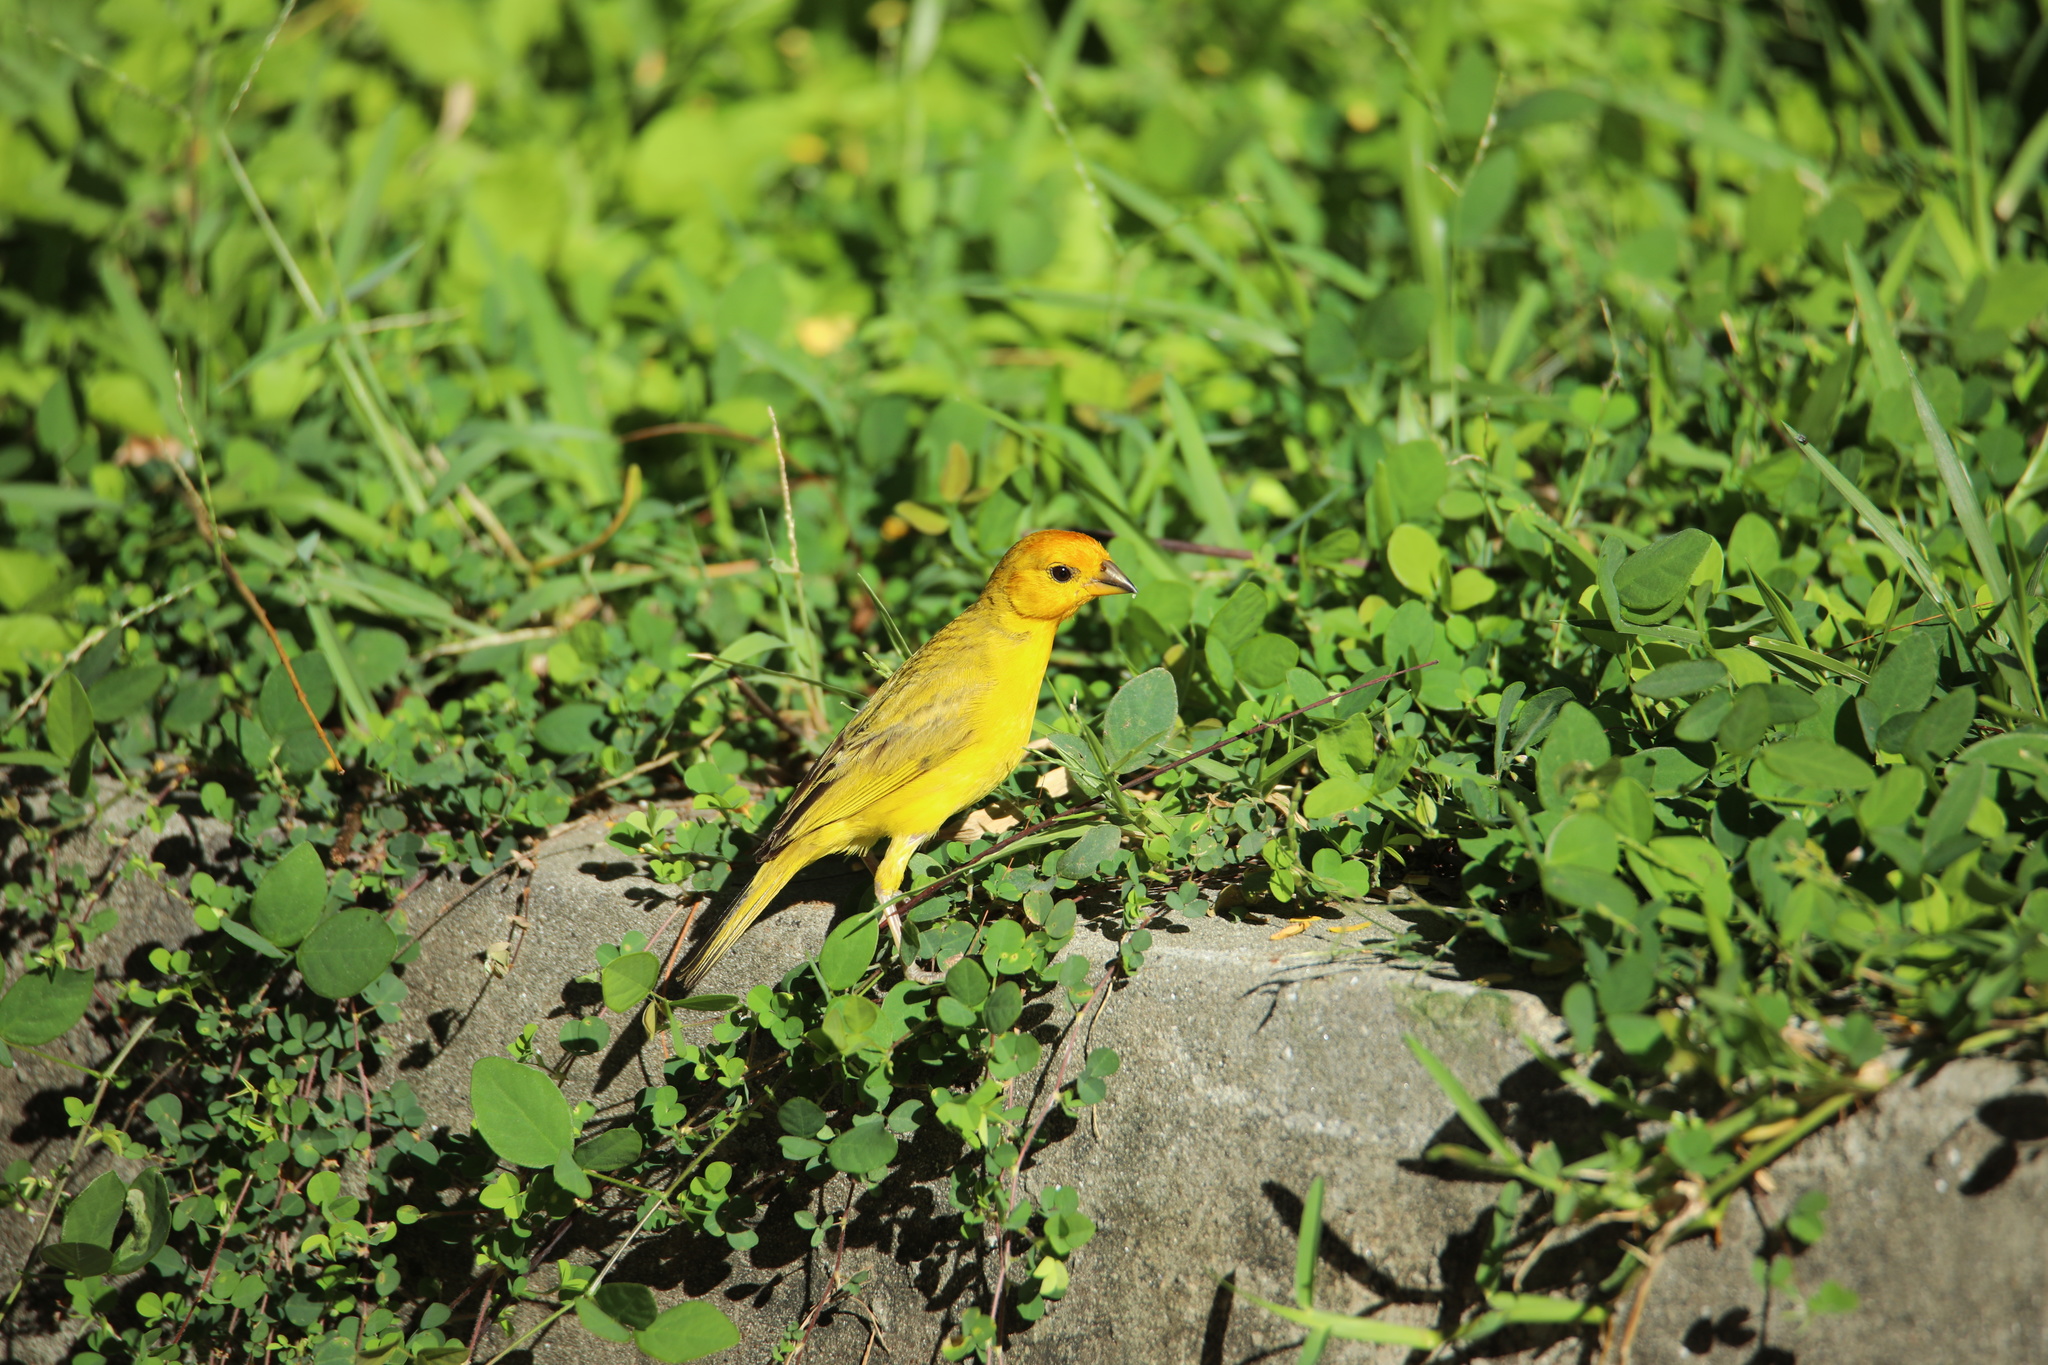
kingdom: Animalia
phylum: Chordata
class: Aves
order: Passeriformes
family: Thraupidae
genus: Sicalis
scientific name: Sicalis flaveola
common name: Saffron finch
